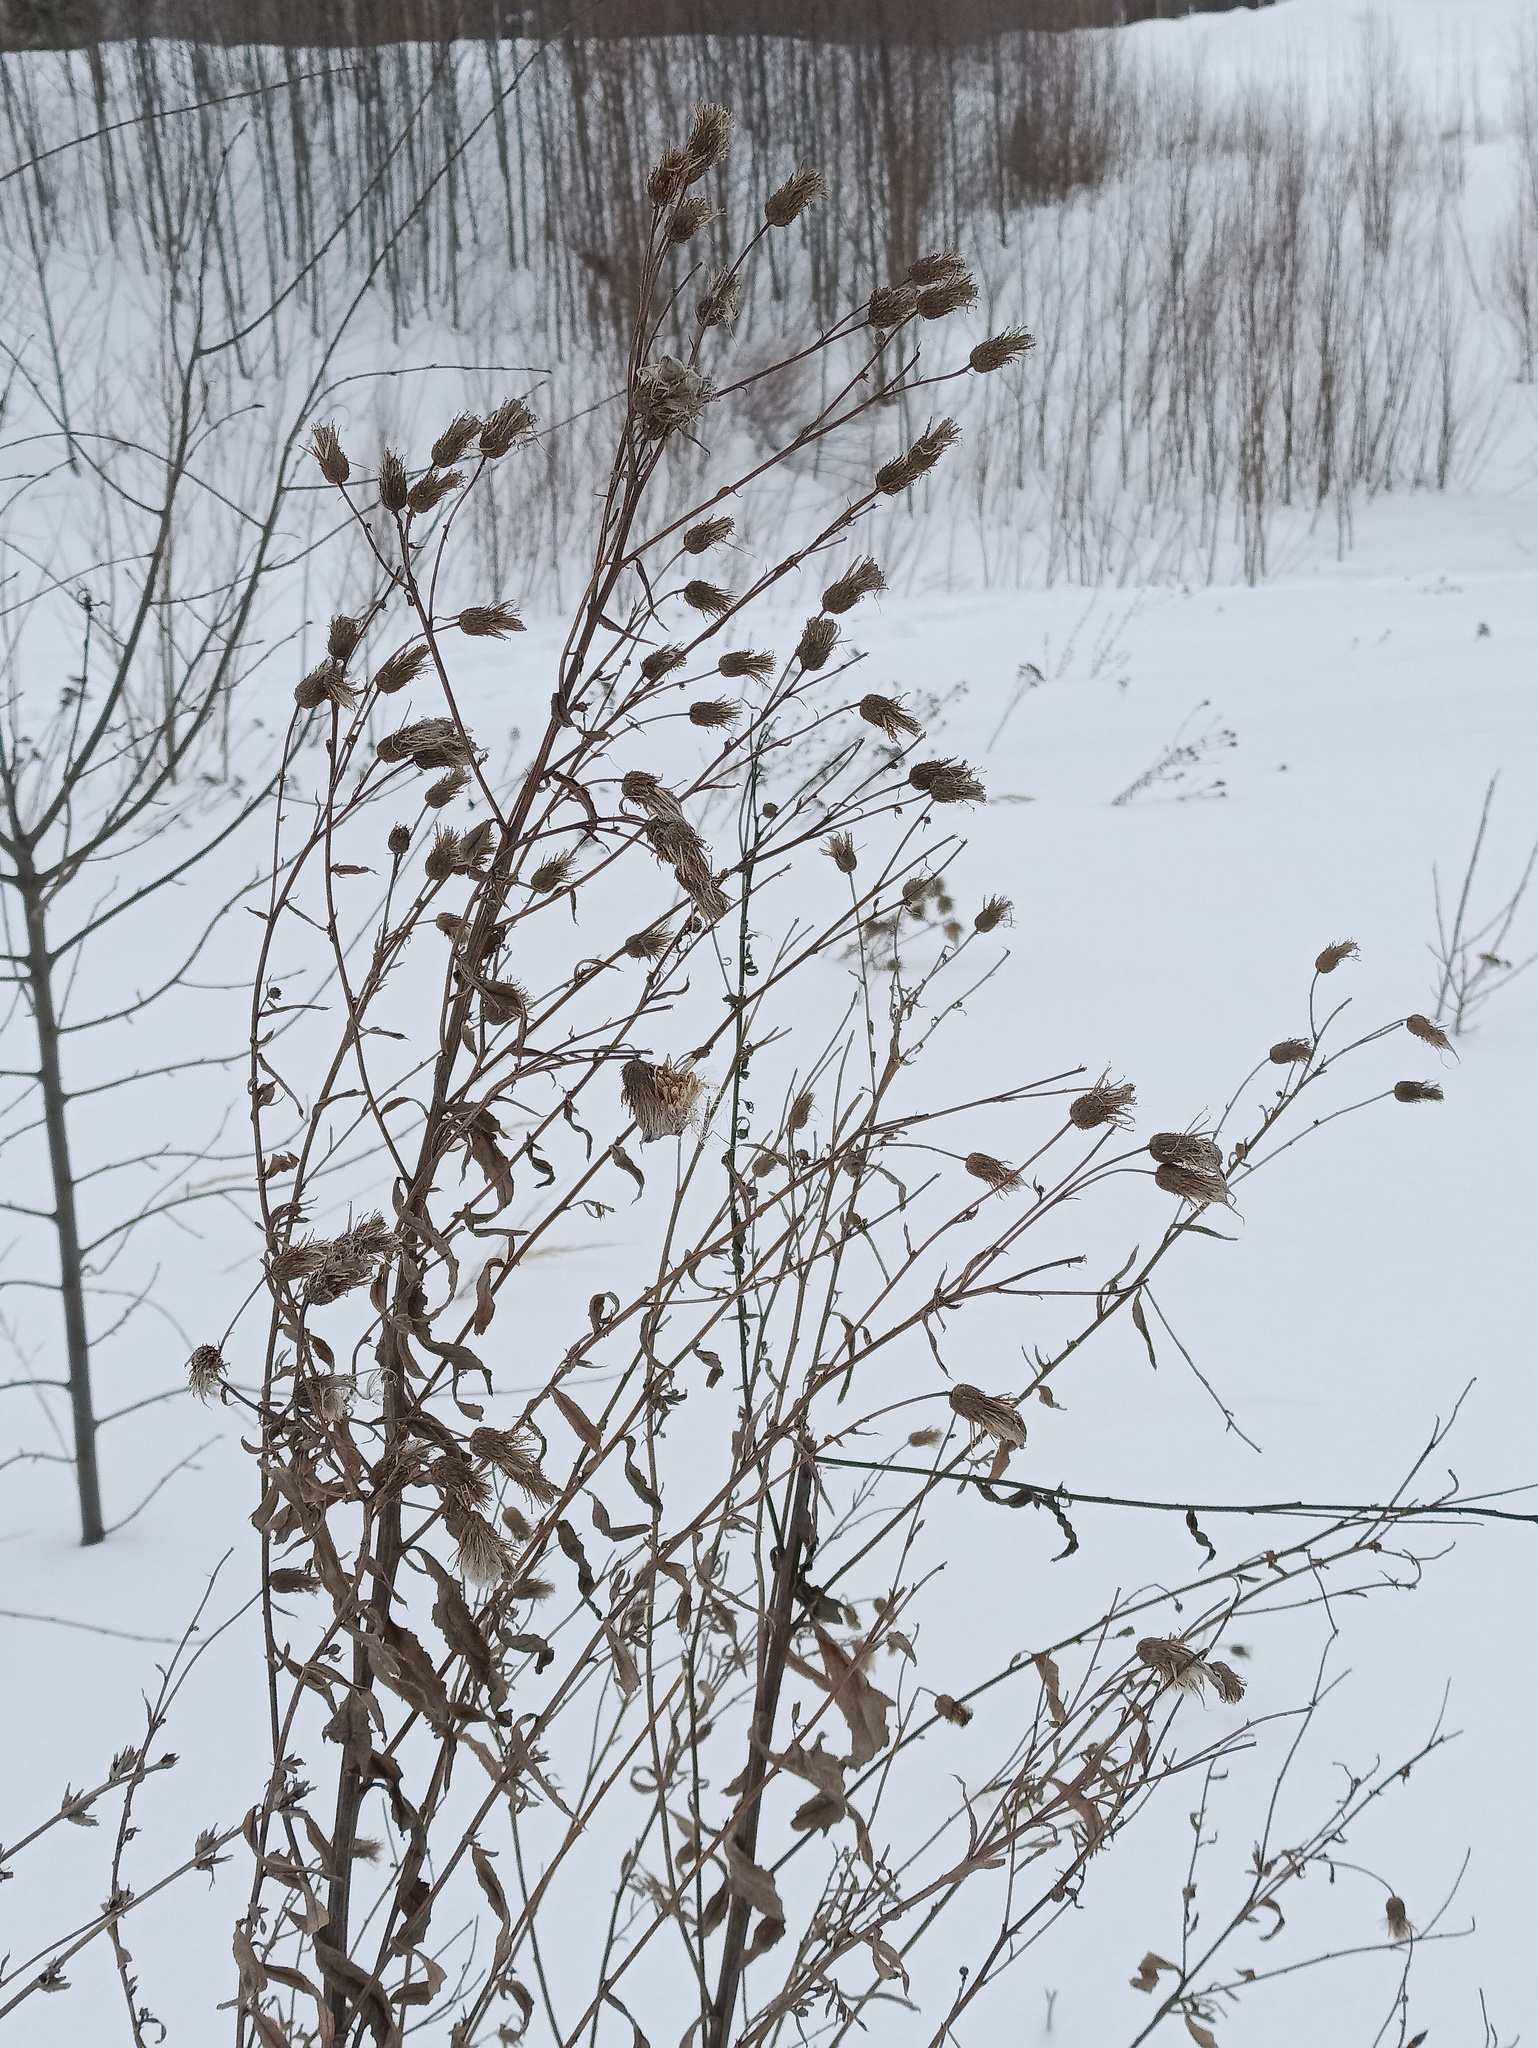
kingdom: Plantae
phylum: Tracheophyta
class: Magnoliopsida
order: Asterales
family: Asteraceae
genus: Cirsium
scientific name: Cirsium arvense
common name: Creeping thistle
